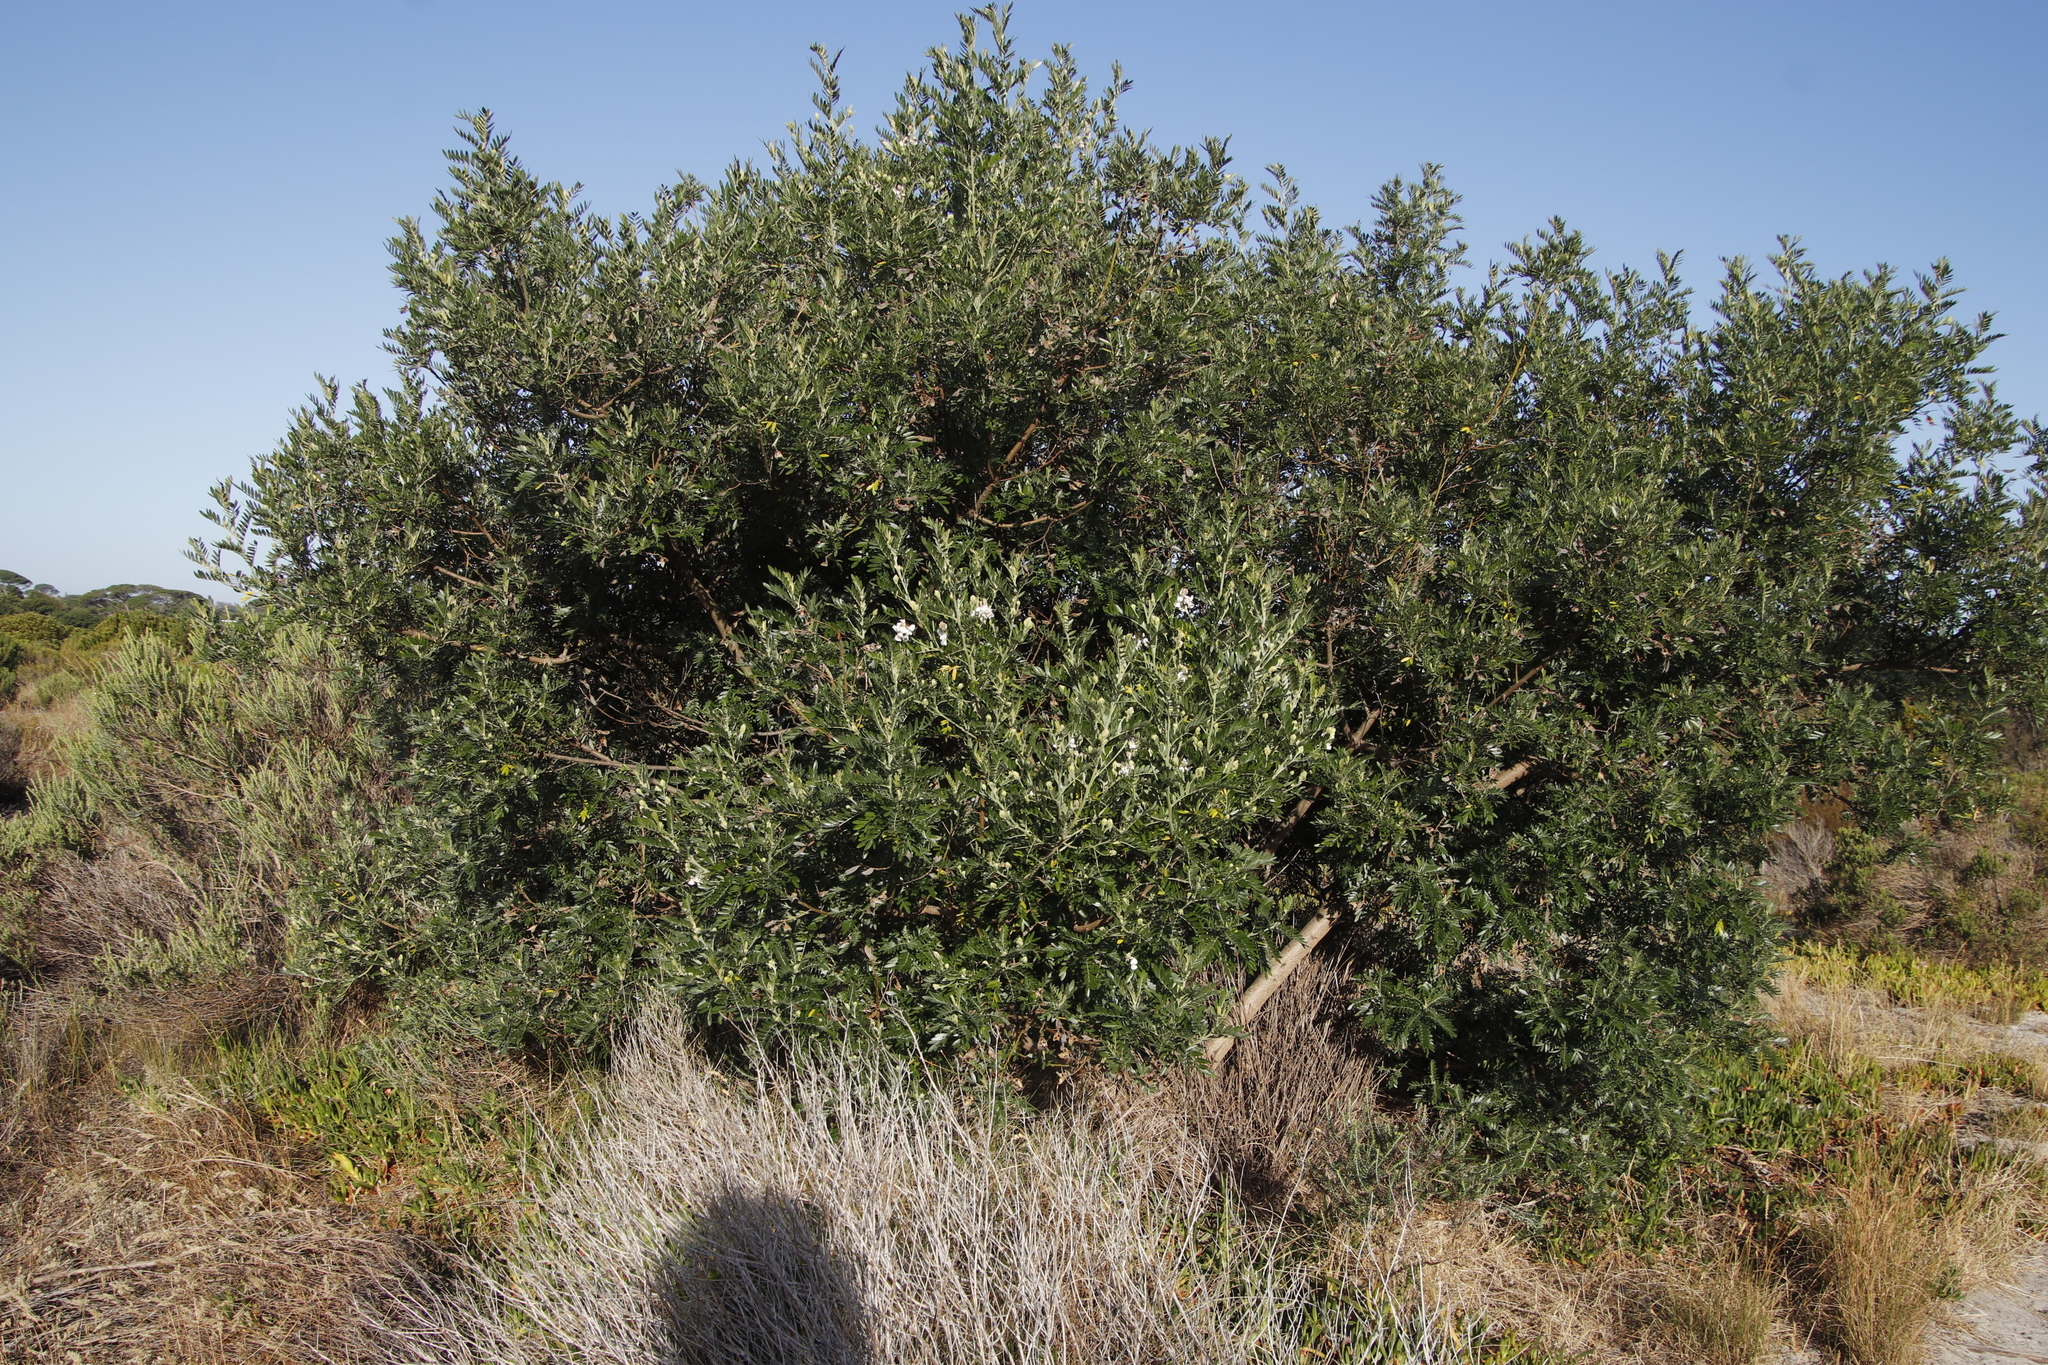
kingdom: Plantae
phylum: Tracheophyta
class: Magnoliopsida
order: Fabales
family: Fabaceae
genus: Virgilia
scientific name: Virgilia oroboides
